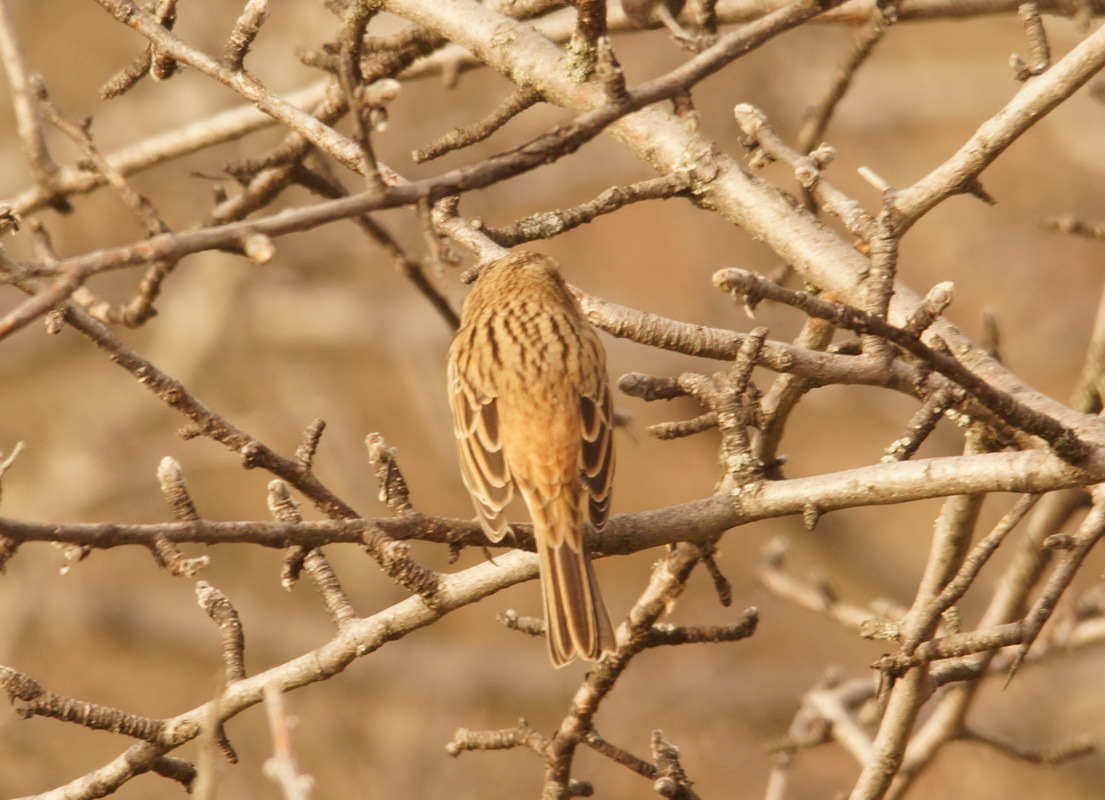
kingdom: Animalia
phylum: Chordata
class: Aves
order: Passeriformes
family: Emberizidae
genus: Emberiza
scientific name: Emberiza cia
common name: Rock bunting
